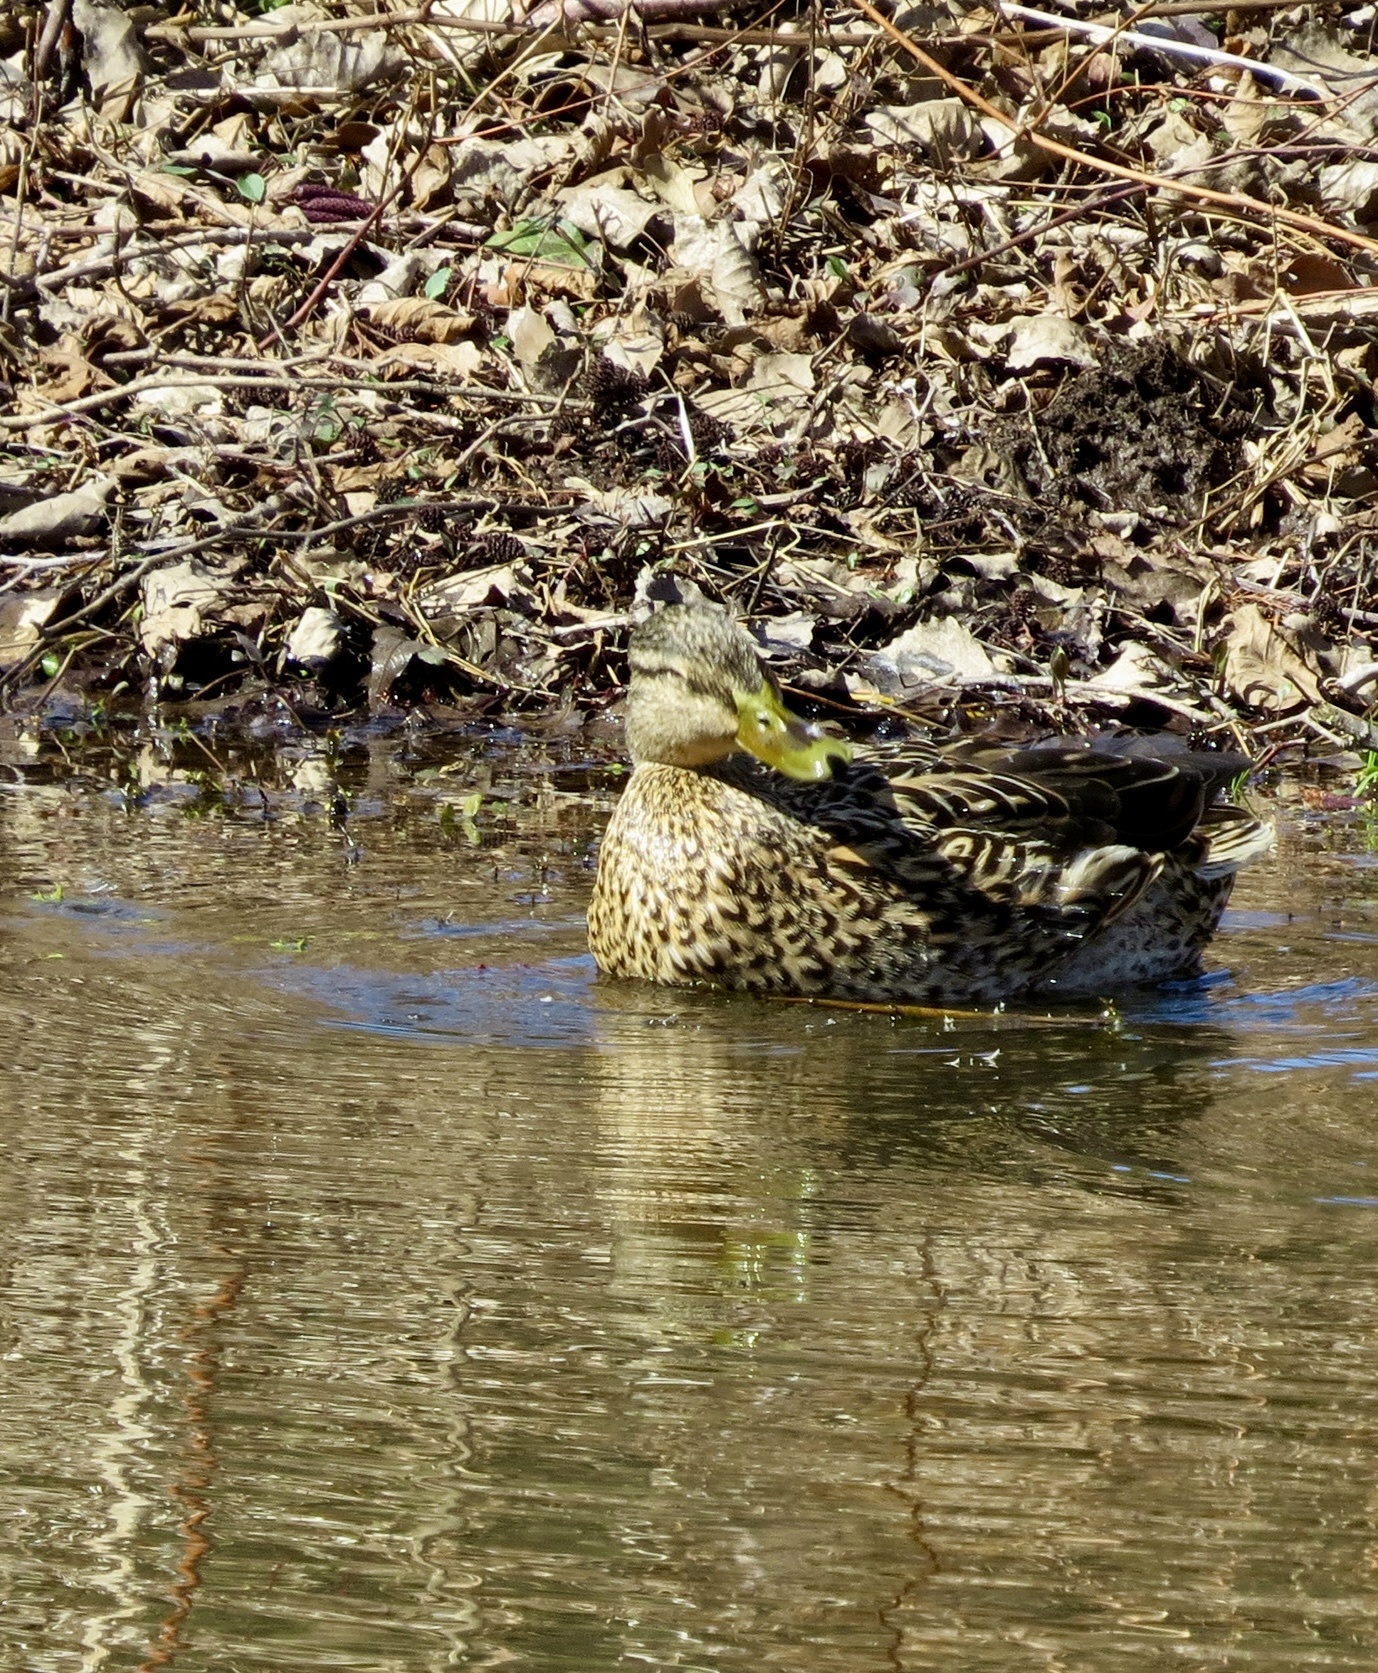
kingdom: Animalia
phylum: Chordata
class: Aves
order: Anseriformes
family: Anatidae
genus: Anas
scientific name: Anas platyrhynchos
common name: Mallard
